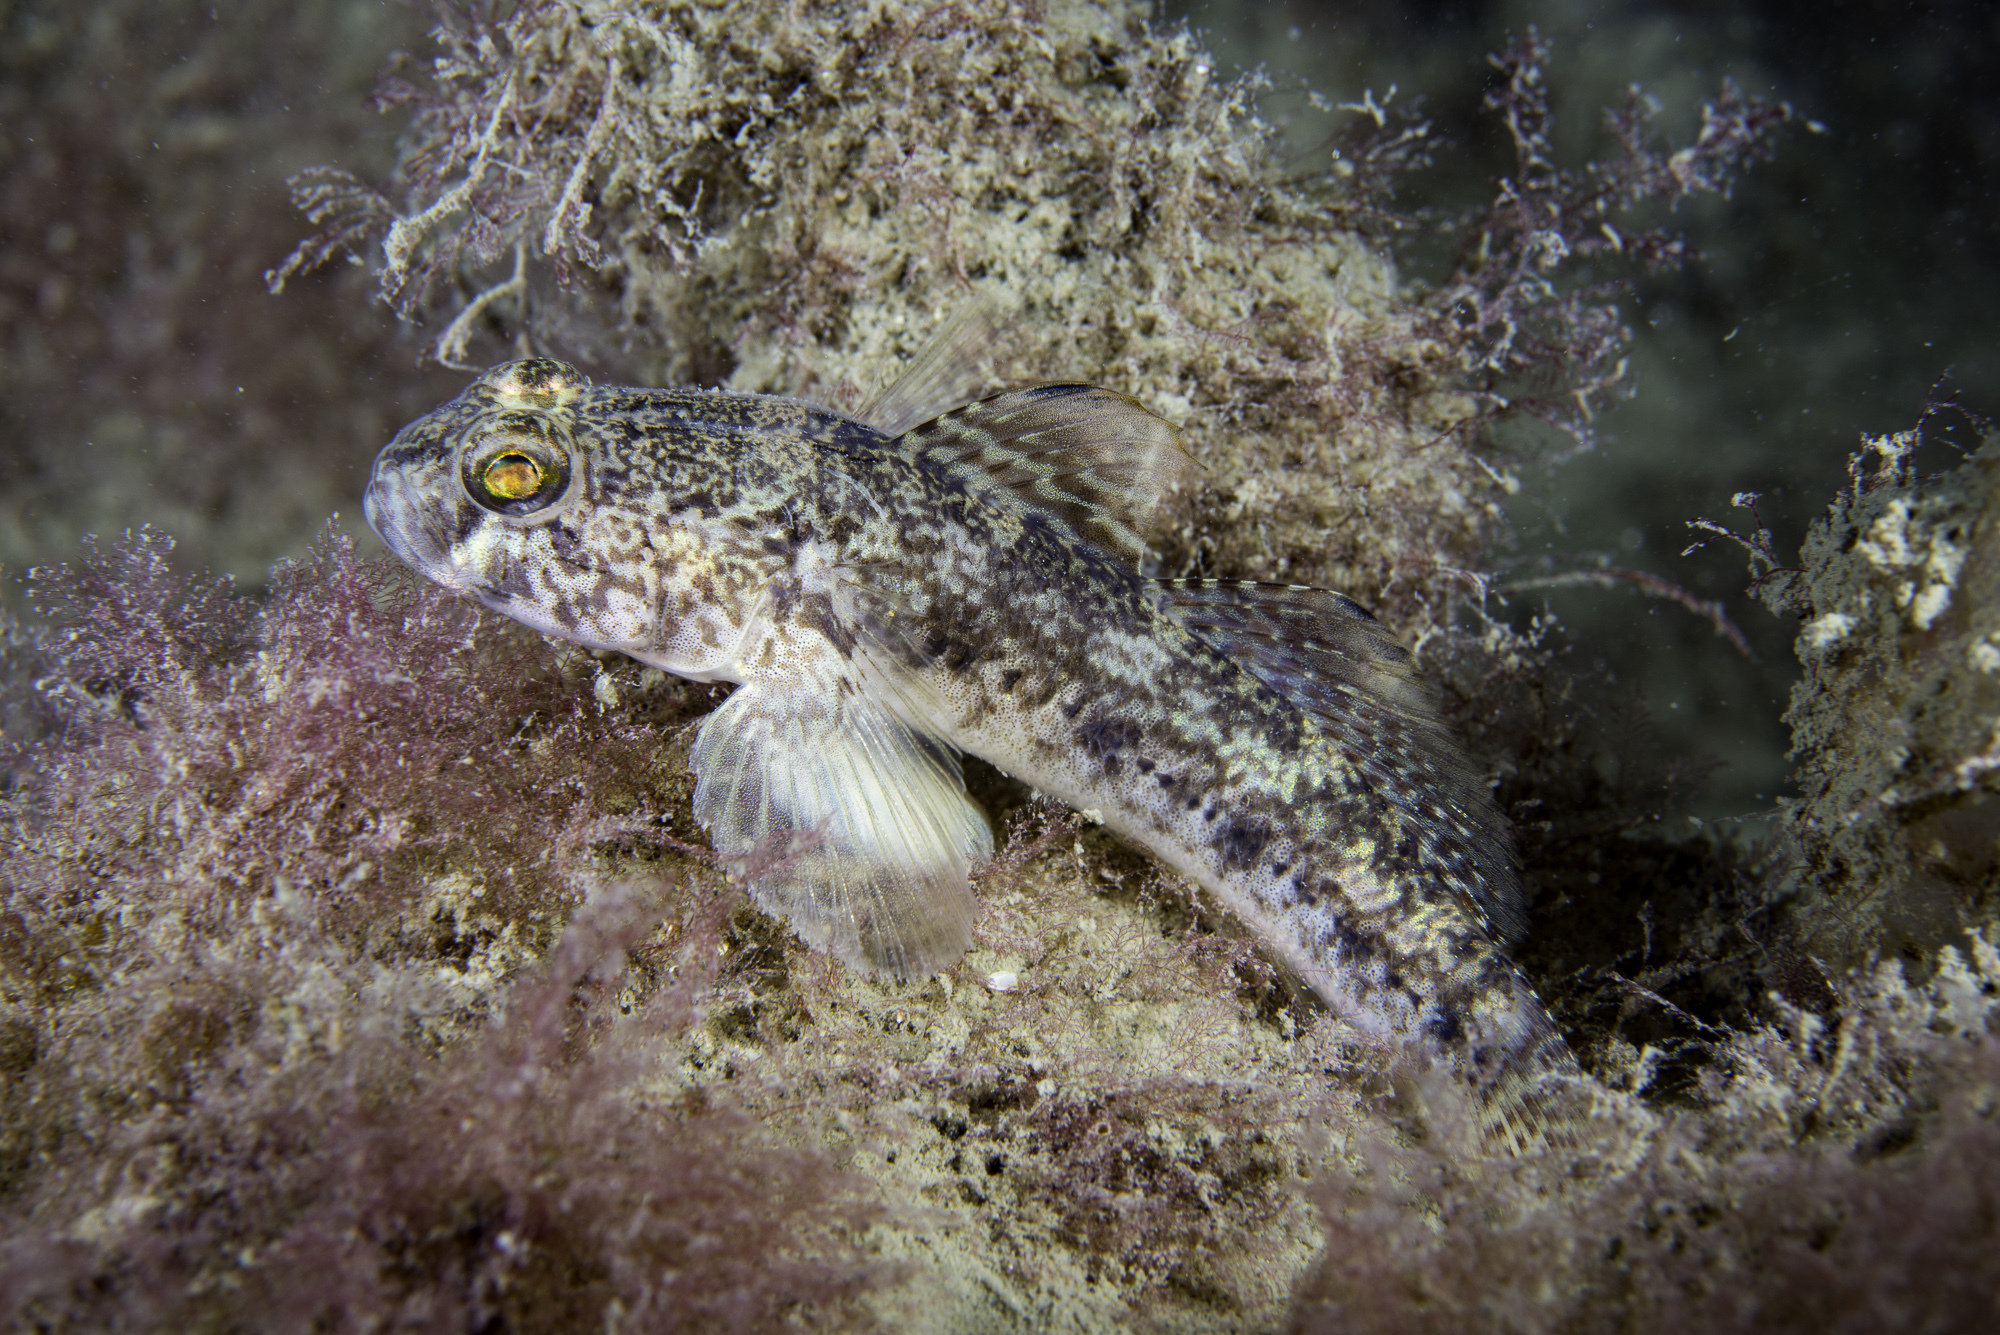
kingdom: Animalia
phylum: Chordata
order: Perciformes
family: Gobiidae
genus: Gobius
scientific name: Gobius niger
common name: Black goby
